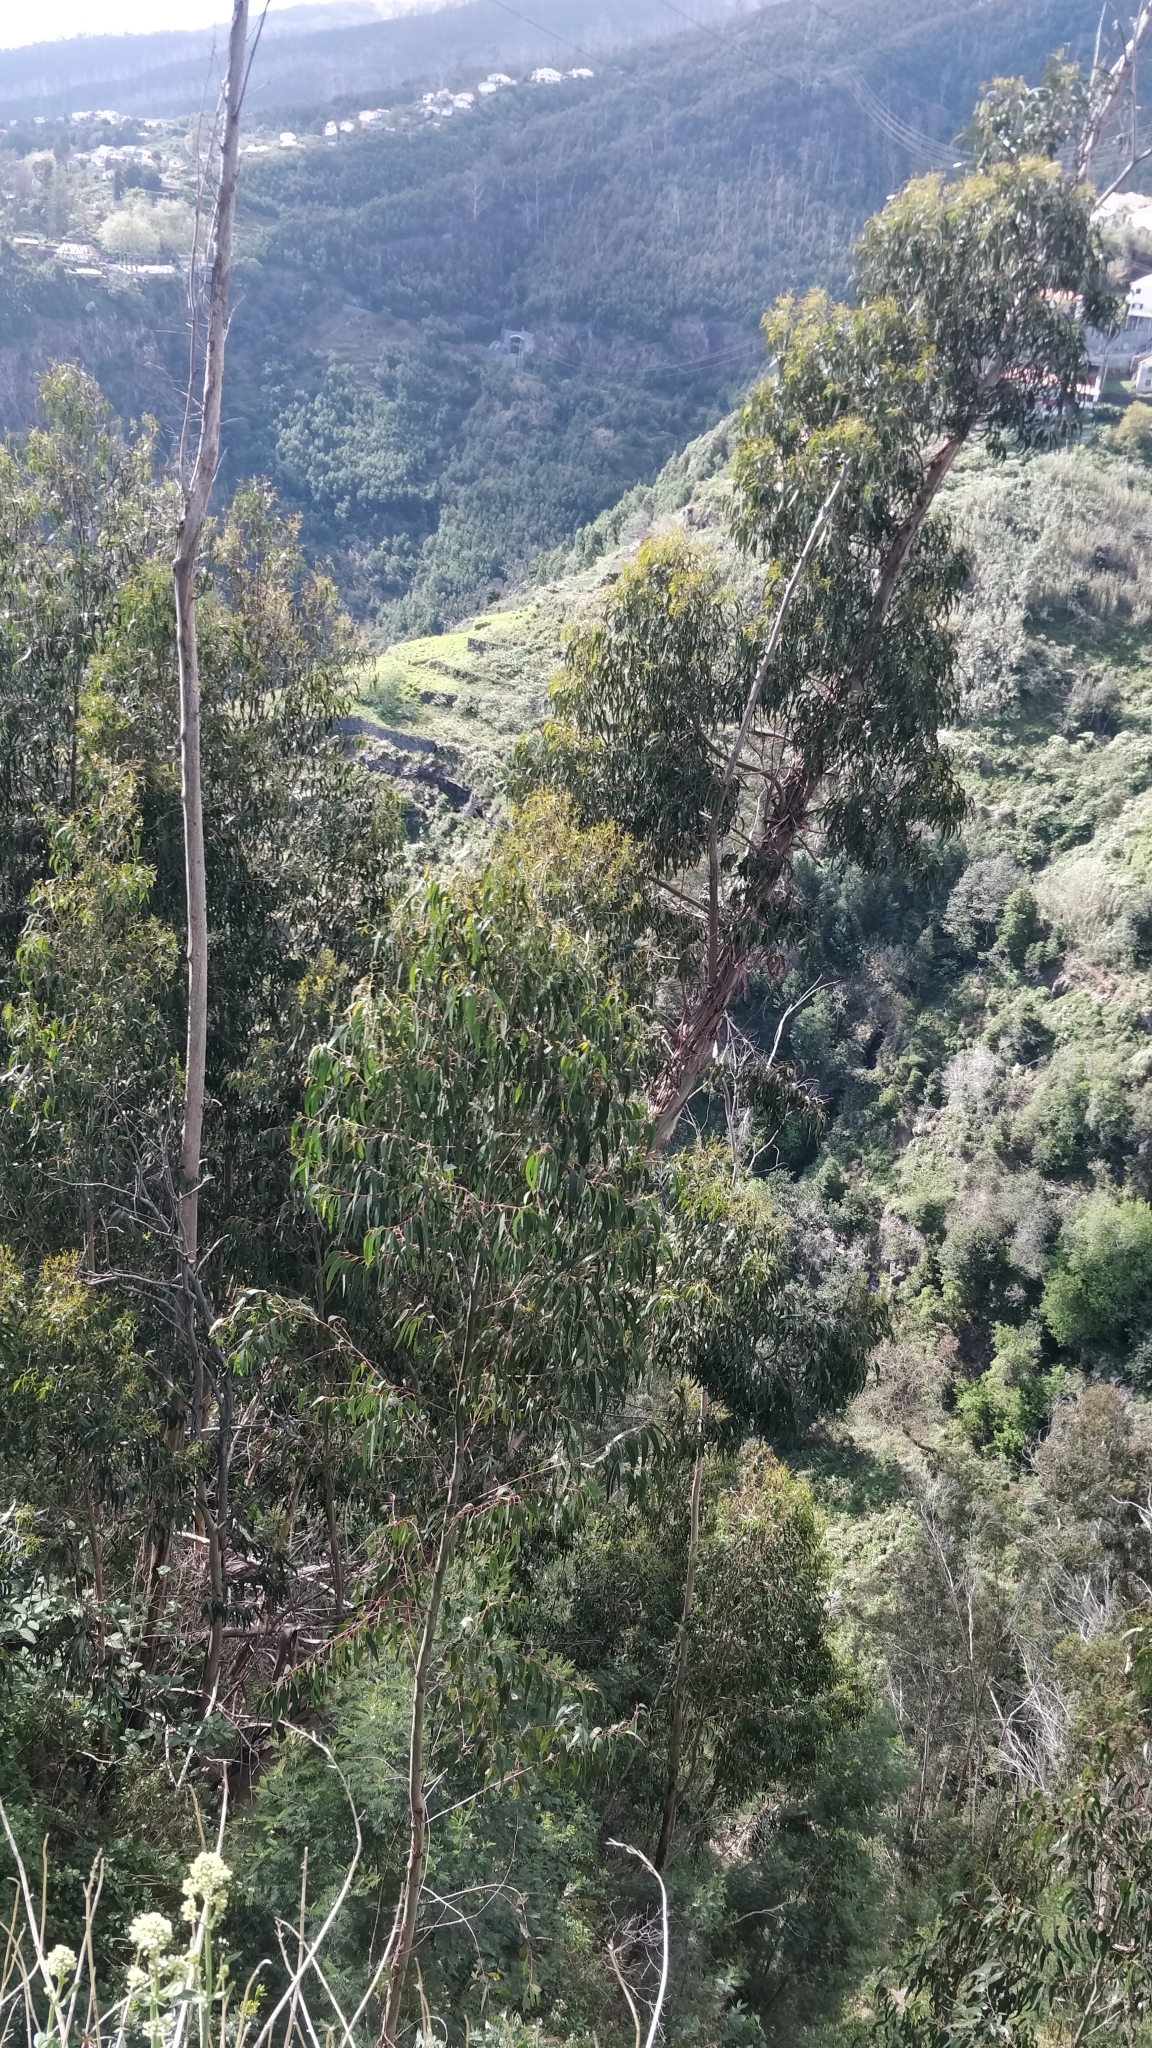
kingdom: Plantae
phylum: Tracheophyta
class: Magnoliopsida
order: Myrtales
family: Myrtaceae
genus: Eucalyptus
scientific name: Eucalyptus globulus
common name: Southern blue-gum
